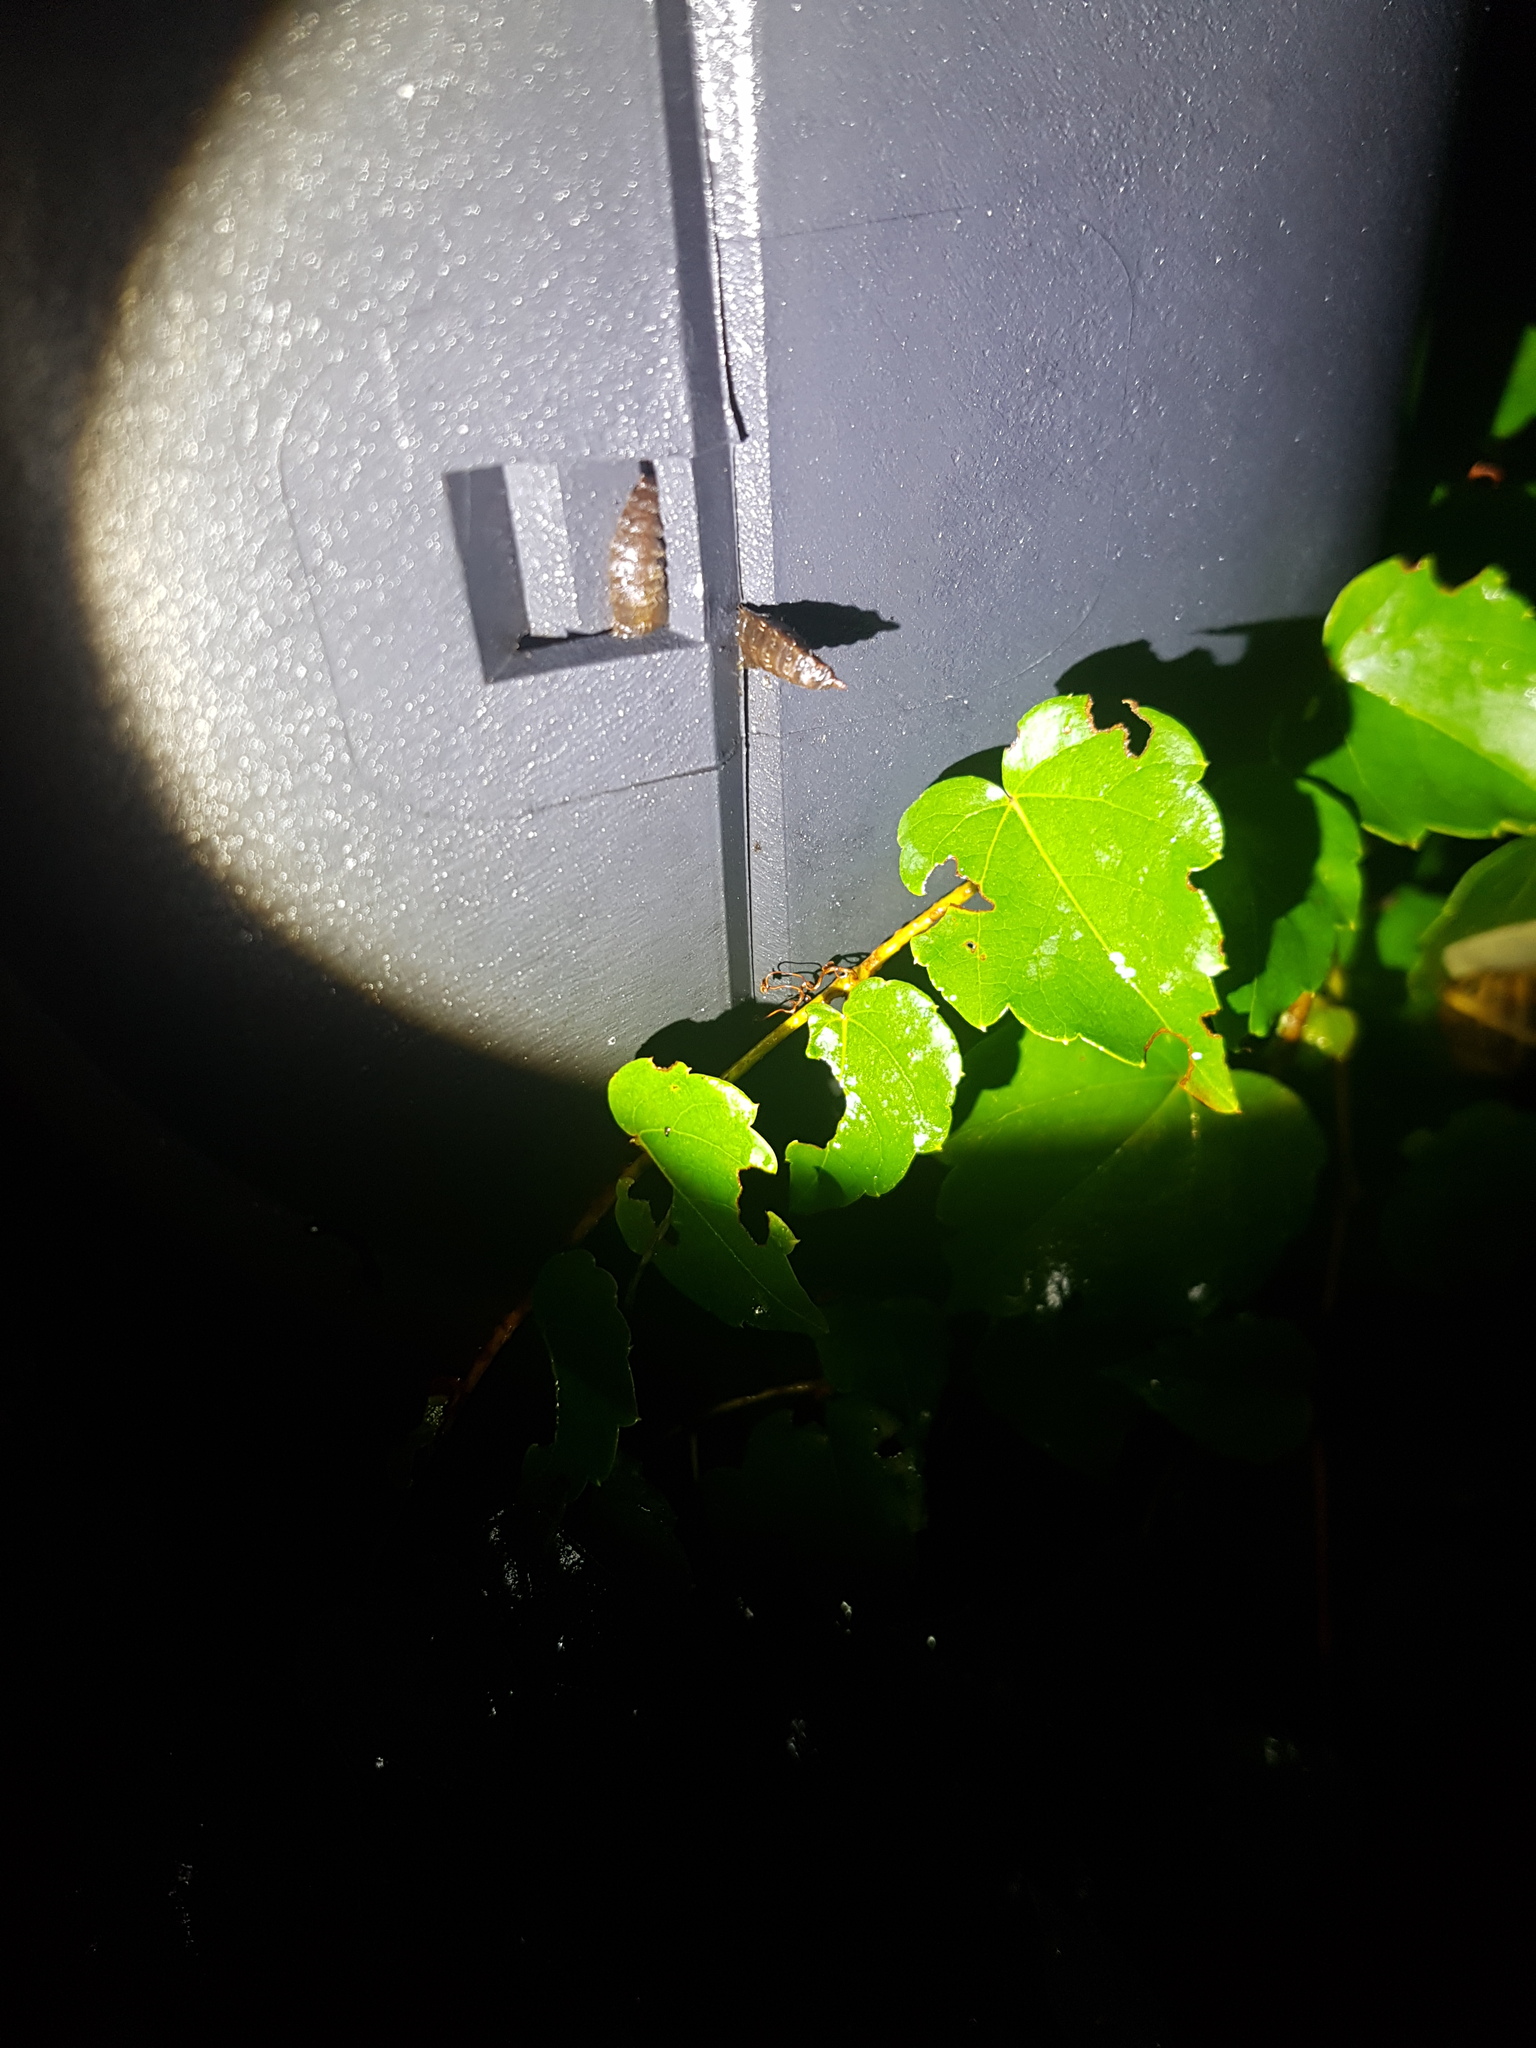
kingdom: Animalia
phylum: Arthropoda
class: Insecta
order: Diptera
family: Stratiomyidae
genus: Hermetia
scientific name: Hermetia illucens
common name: Black soldier fly
